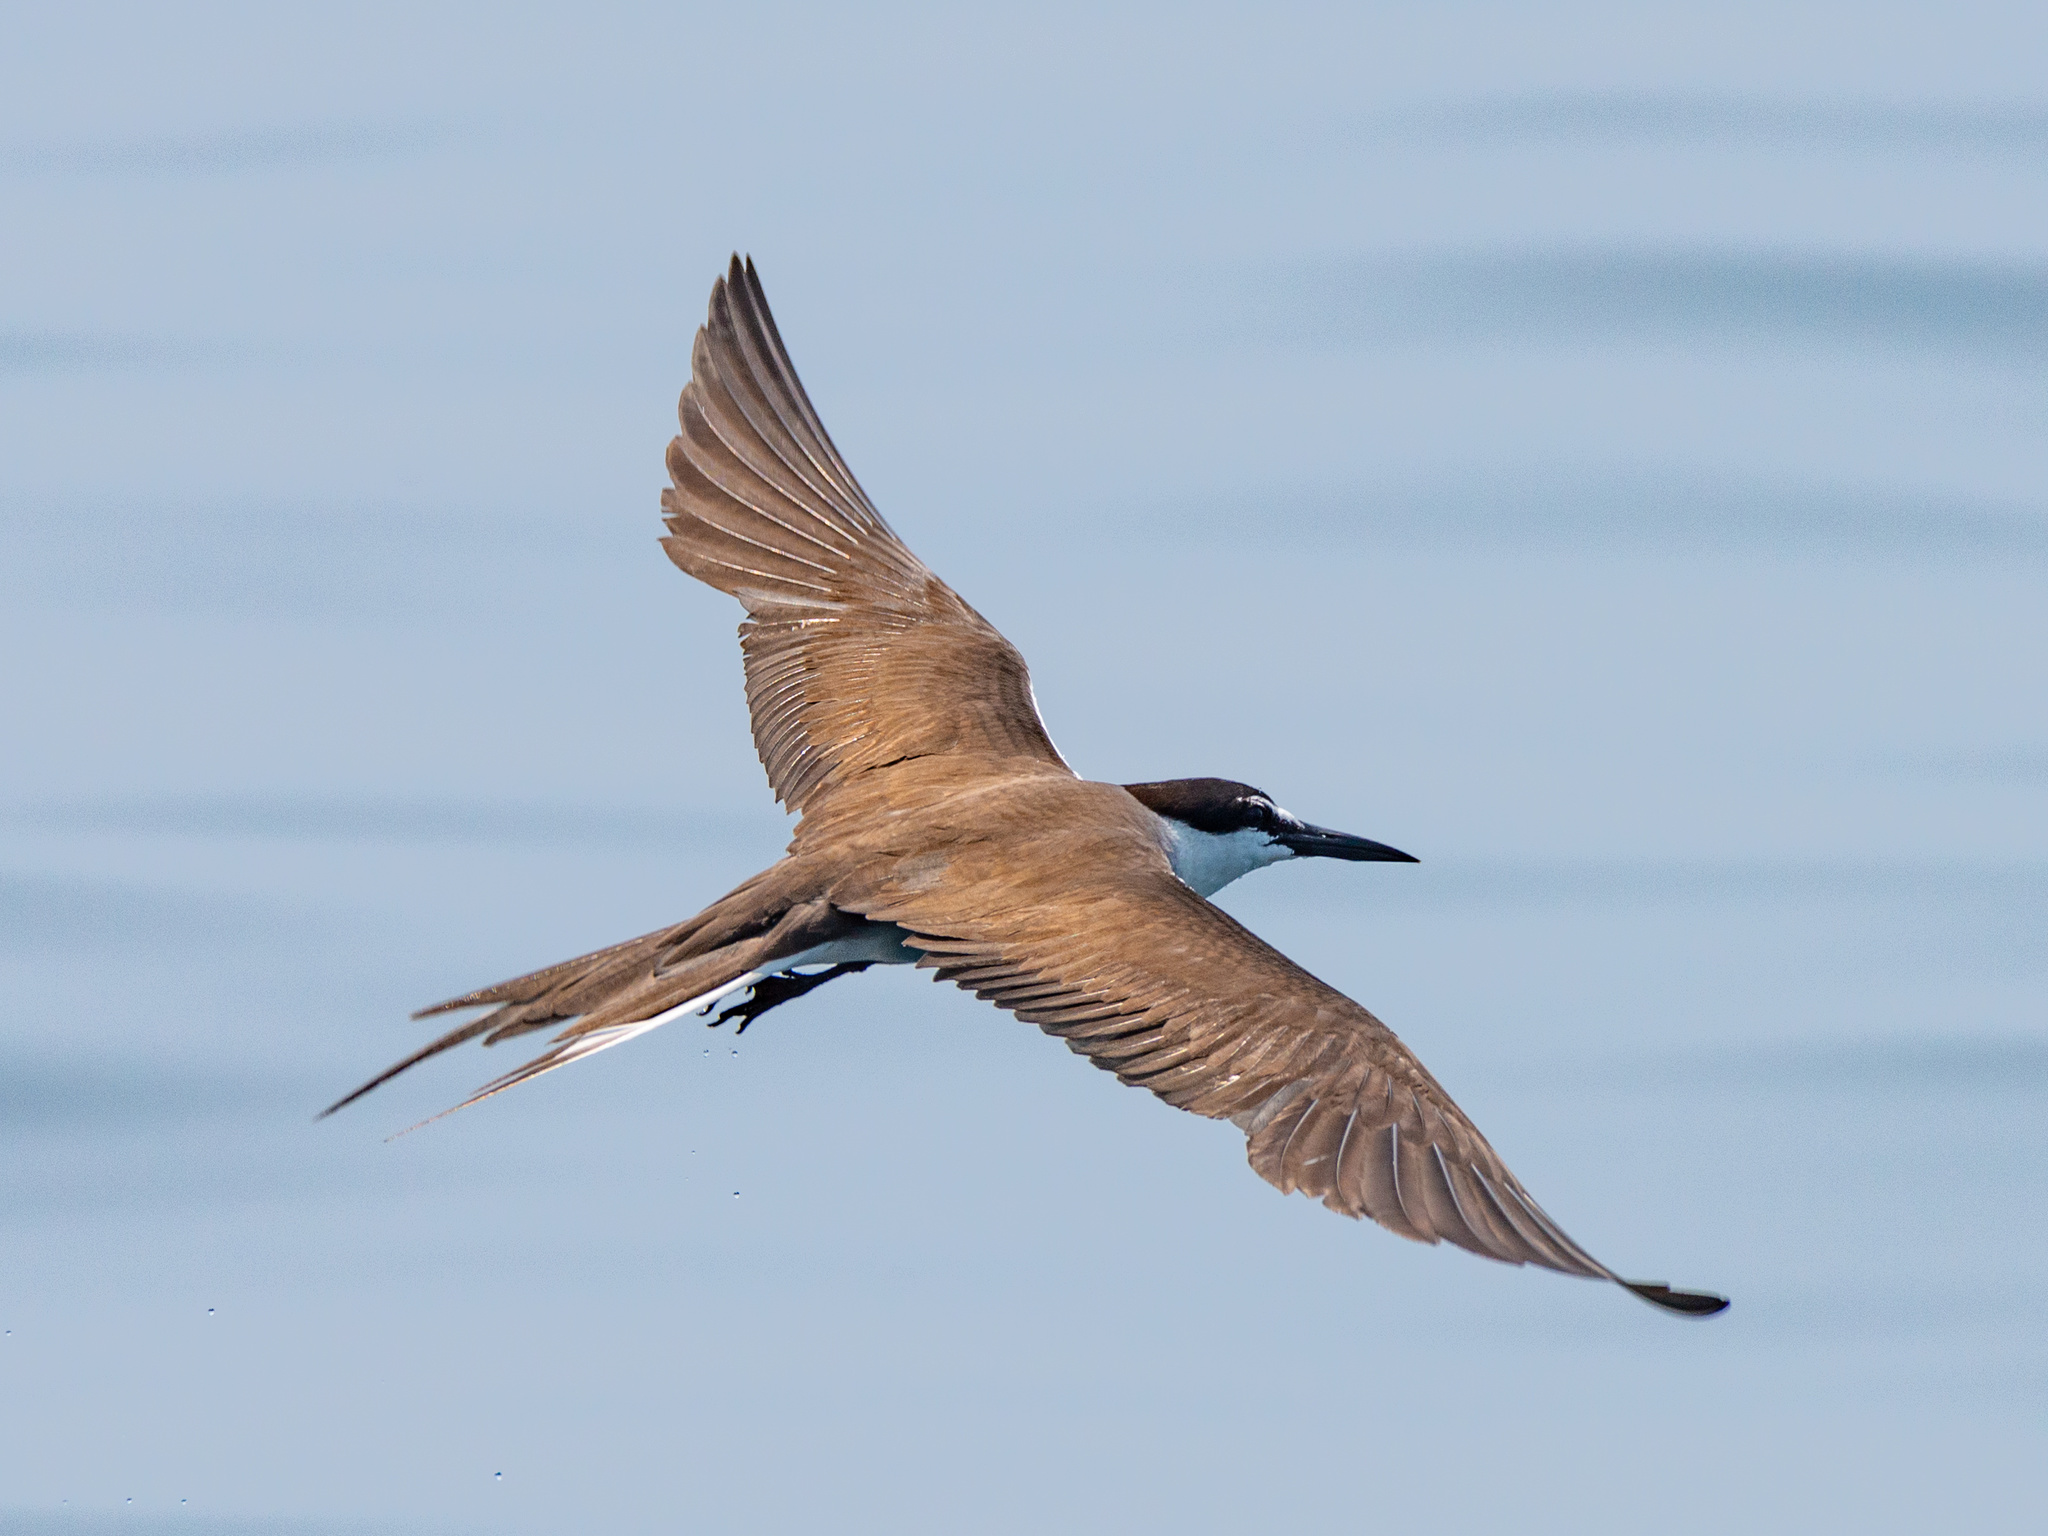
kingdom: Animalia
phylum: Chordata
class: Aves
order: Charadriiformes
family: Laridae
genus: Onychoprion
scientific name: Onychoprion anaethetus
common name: Bridled tern
